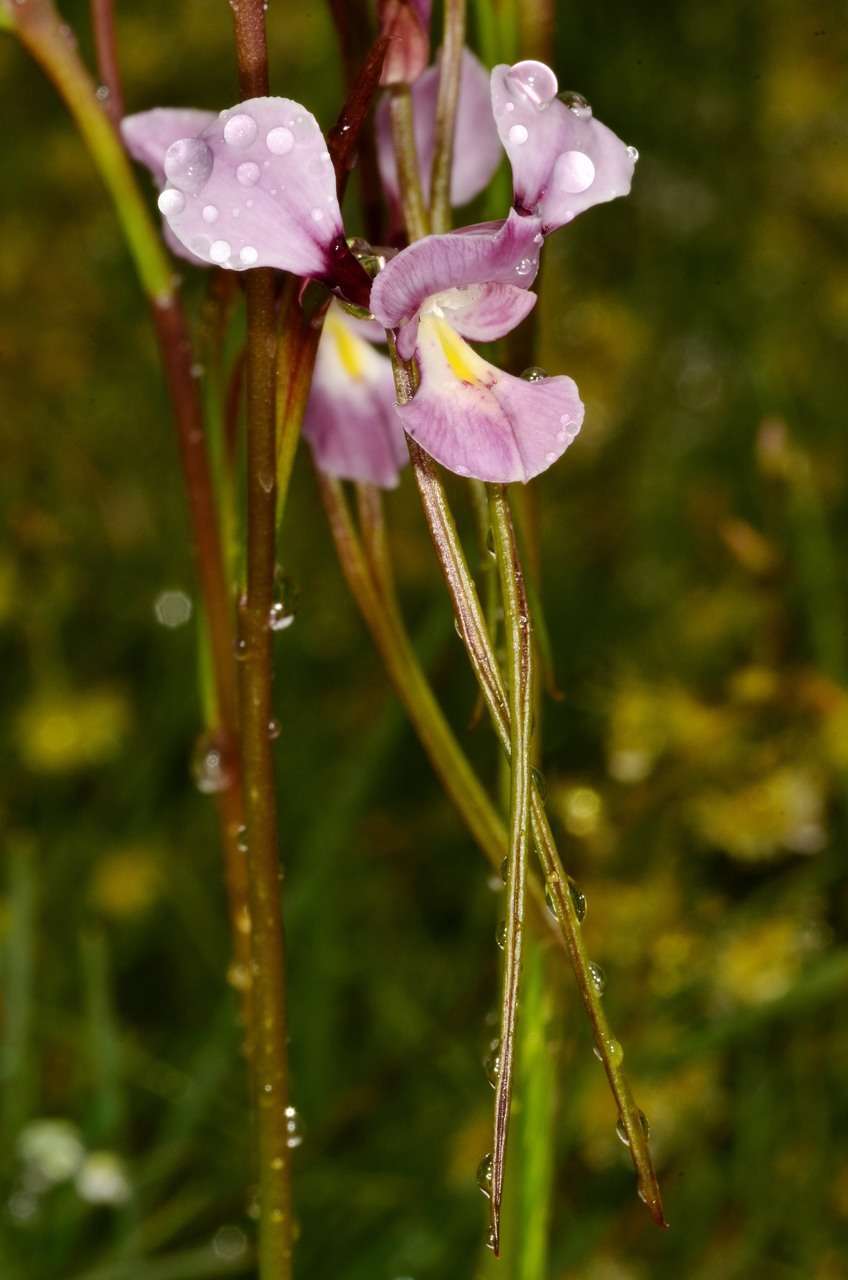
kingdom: Plantae
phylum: Tracheophyta
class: Liliopsida
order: Asparagales
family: Orchidaceae
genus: Diuris
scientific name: Diuris punctata
